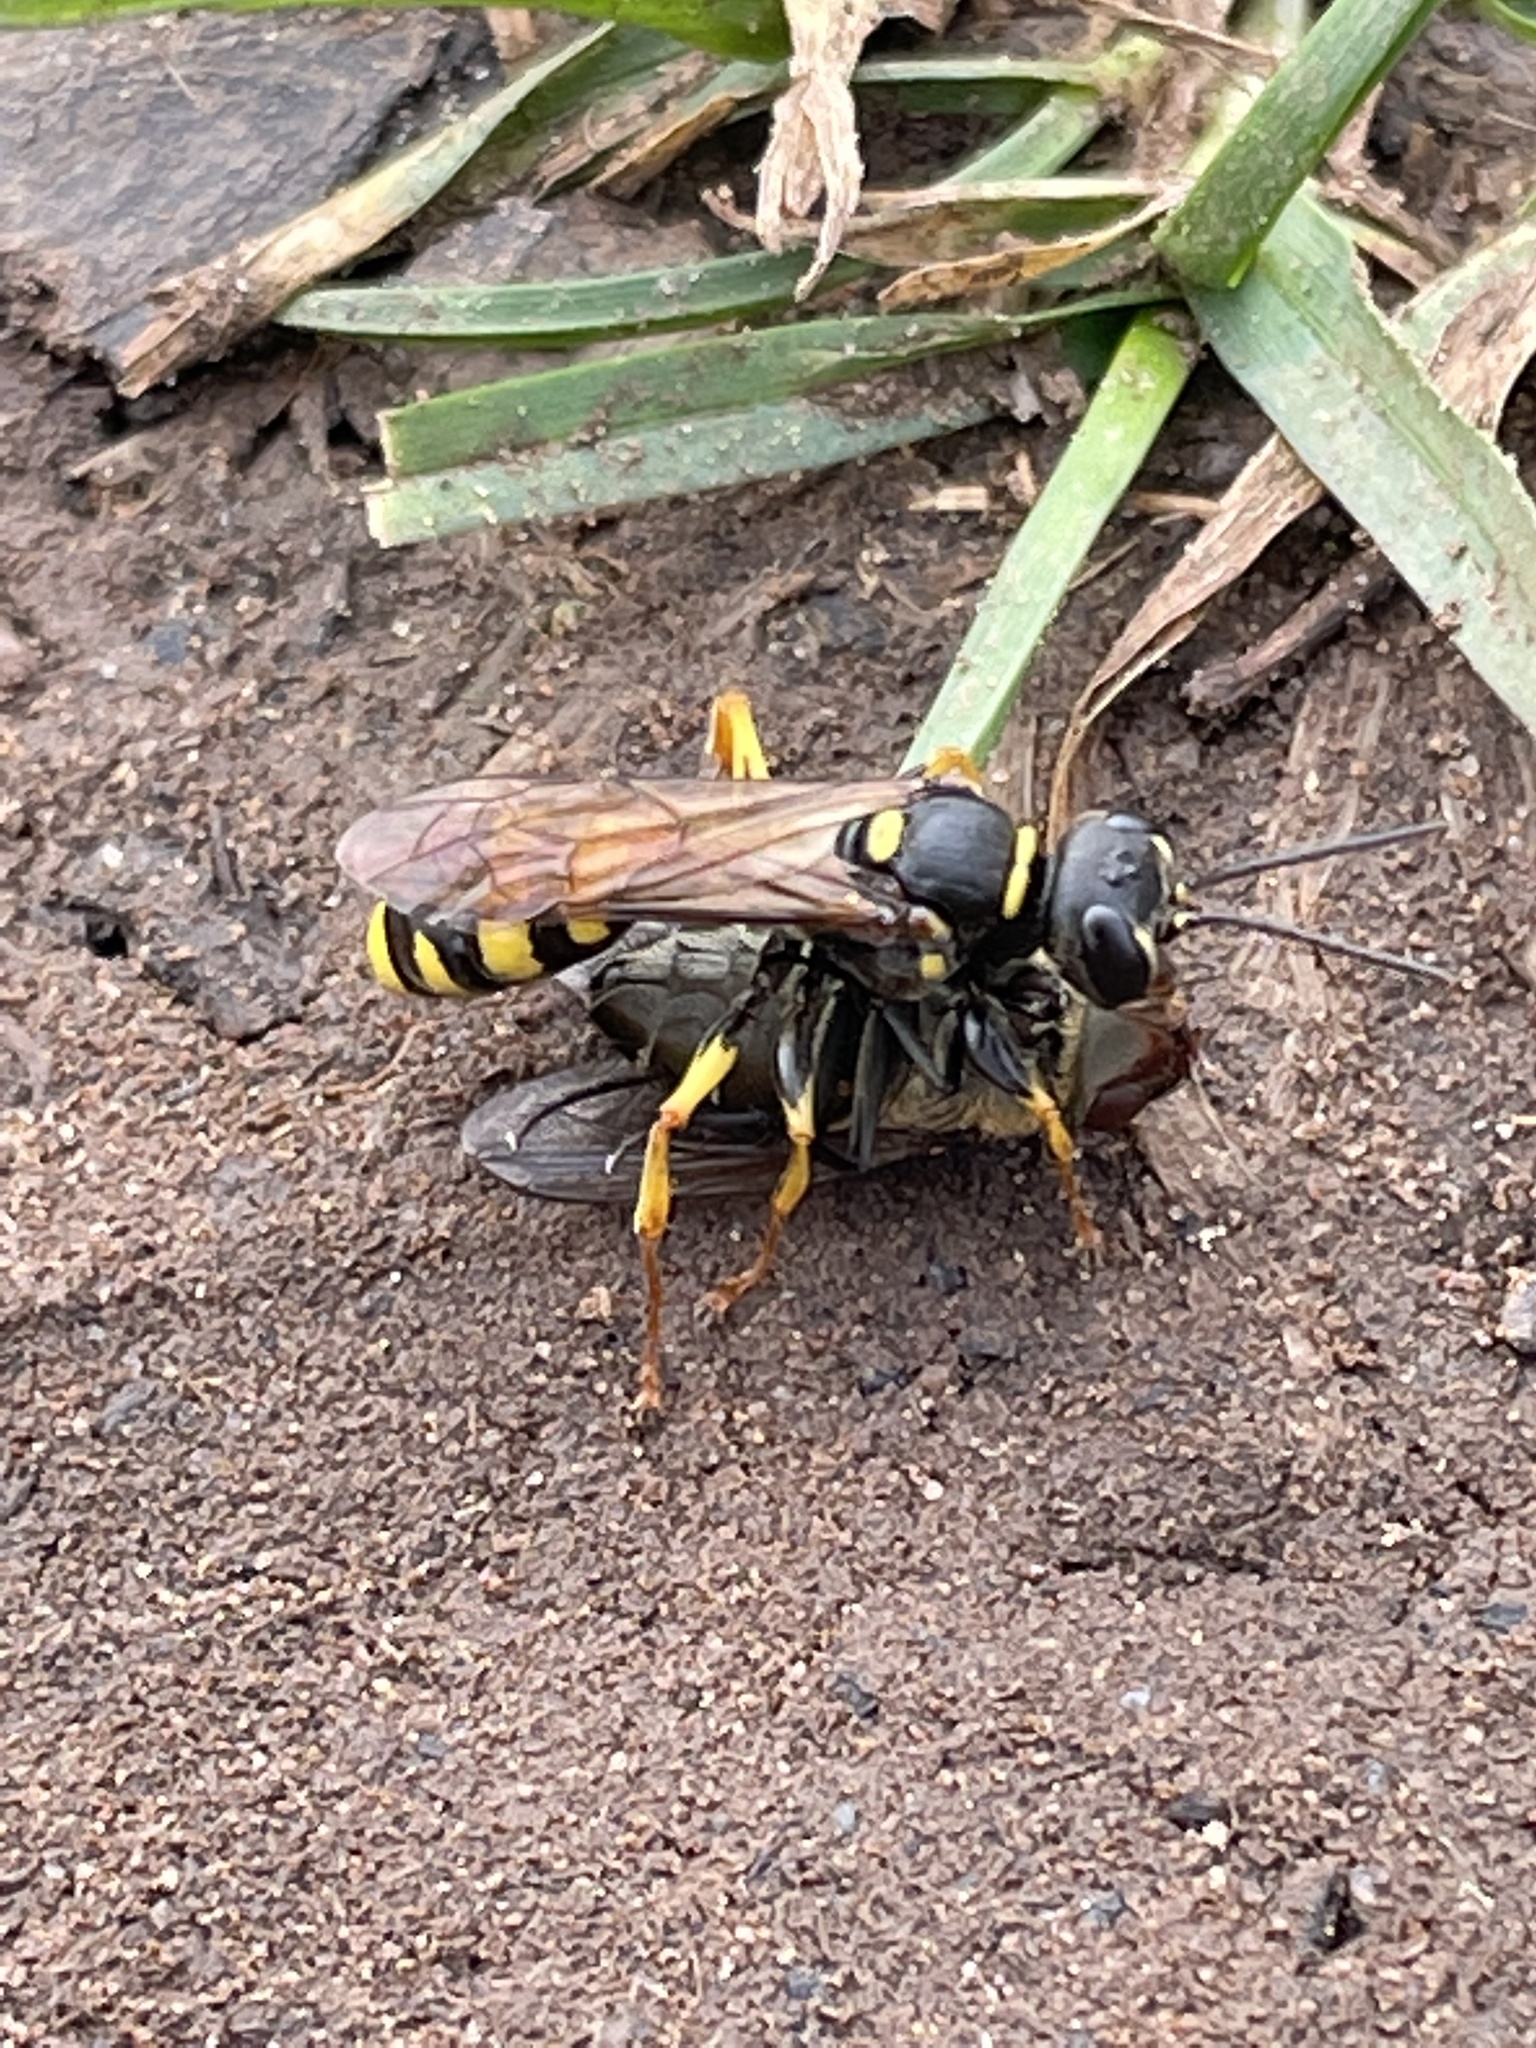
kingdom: Animalia
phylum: Arthropoda
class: Insecta
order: Hymenoptera
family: Crabronidae
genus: Mellinus
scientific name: Mellinus arvensis
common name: Field digger wasp
